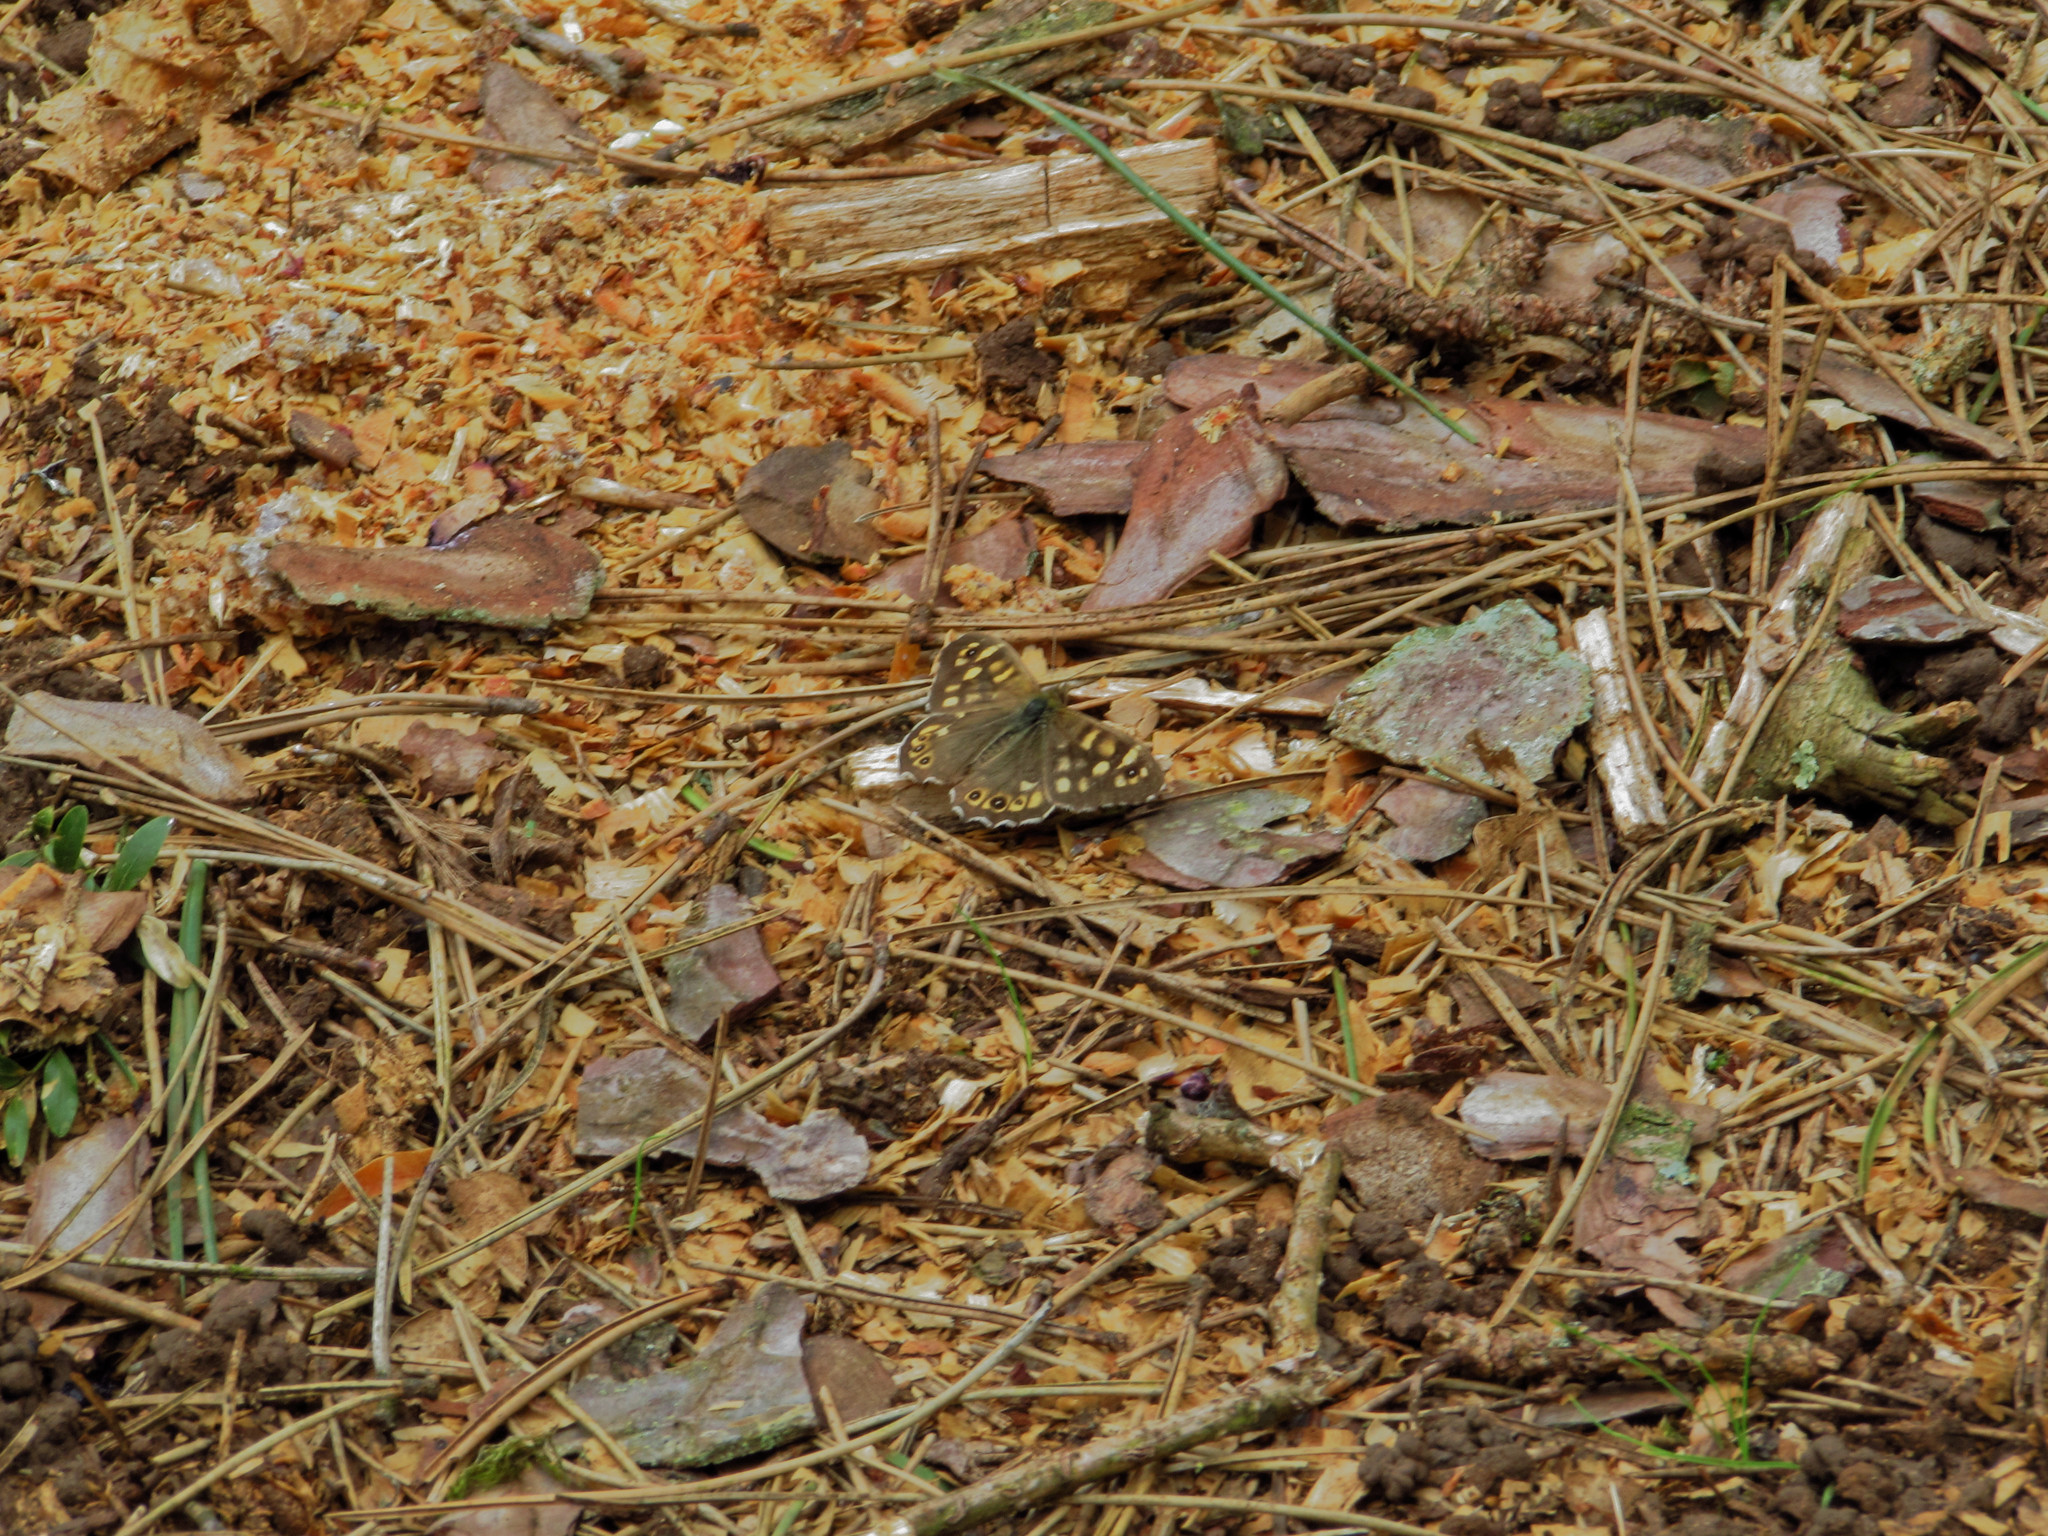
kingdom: Animalia
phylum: Arthropoda
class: Insecta
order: Lepidoptera
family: Nymphalidae
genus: Pararge
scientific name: Pararge aegeria
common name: Speckled wood
